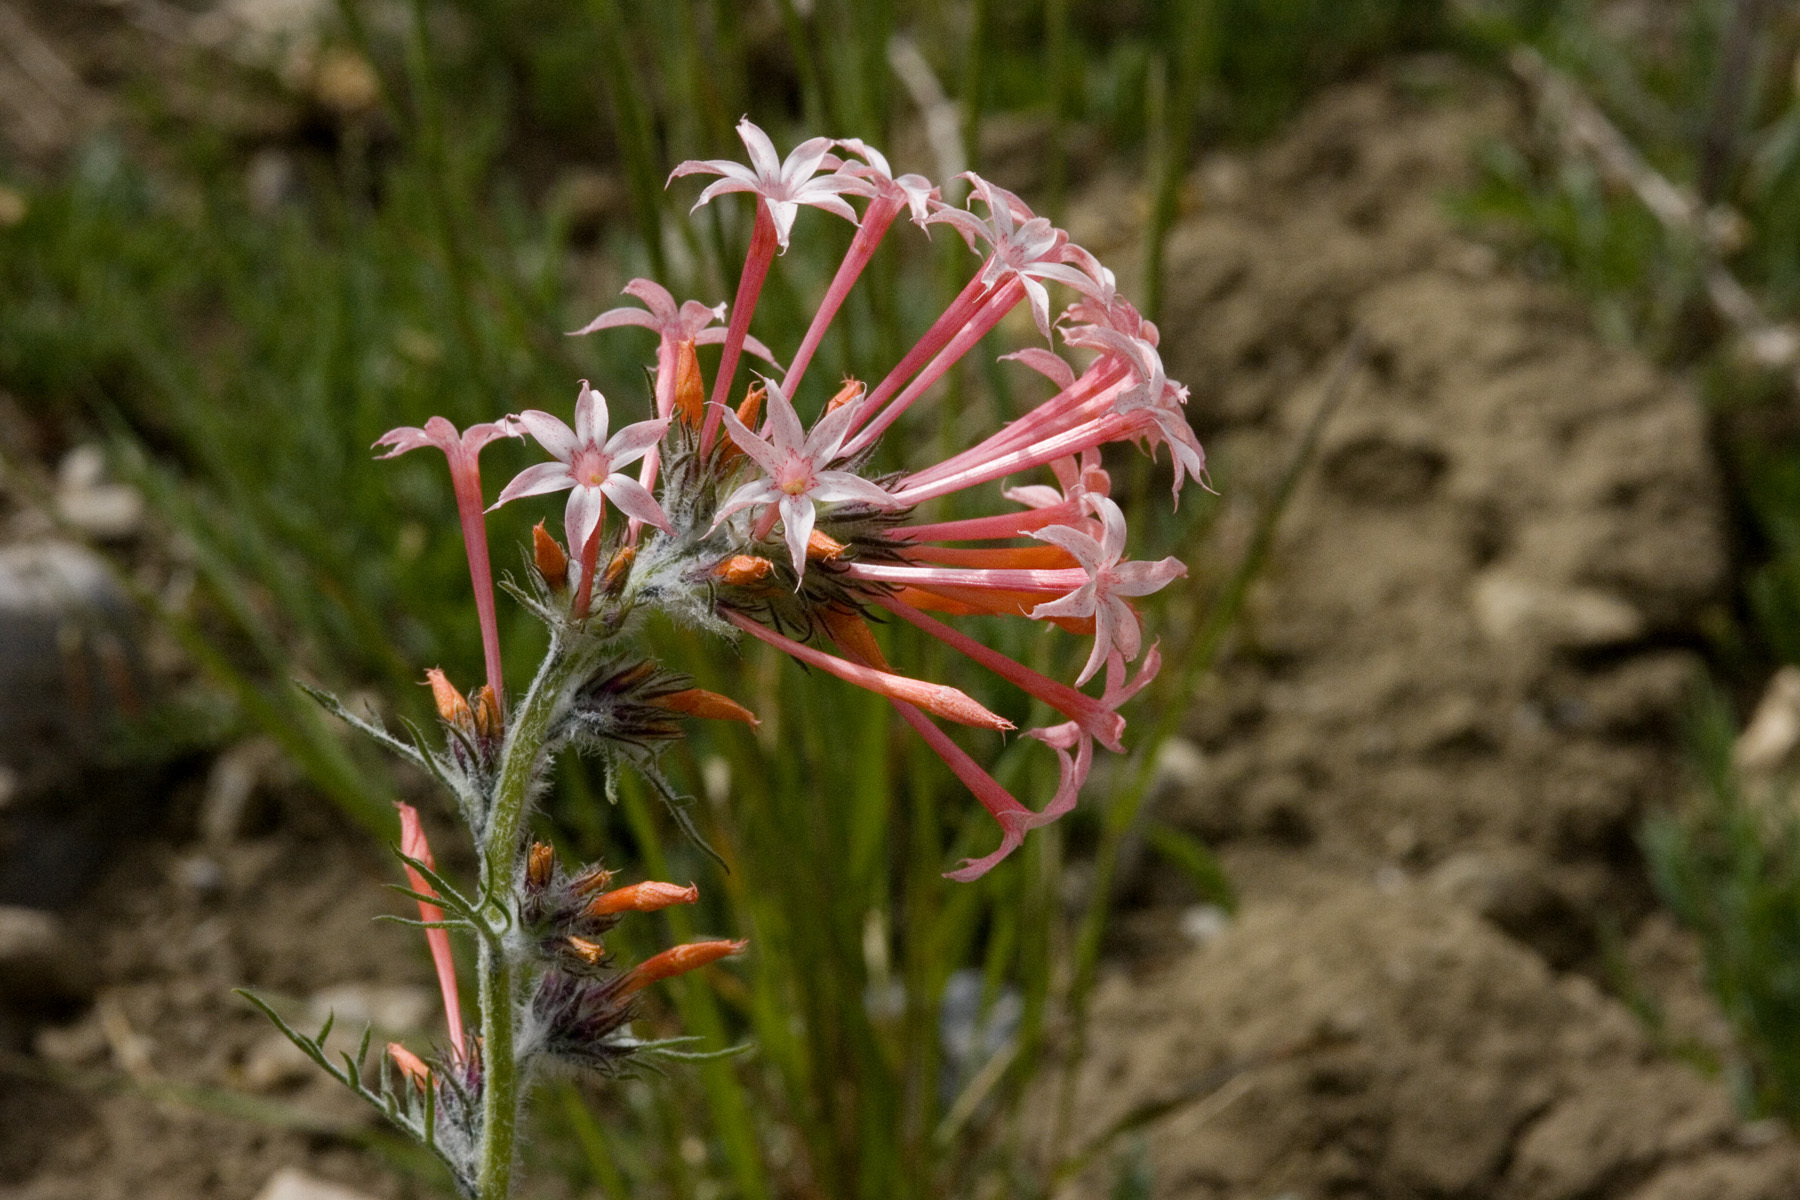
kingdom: Plantae
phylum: Tracheophyta
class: Magnoliopsida
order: Ericales
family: Polemoniaceae
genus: Ipomopsis
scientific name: Ipomopsis tenuituba
